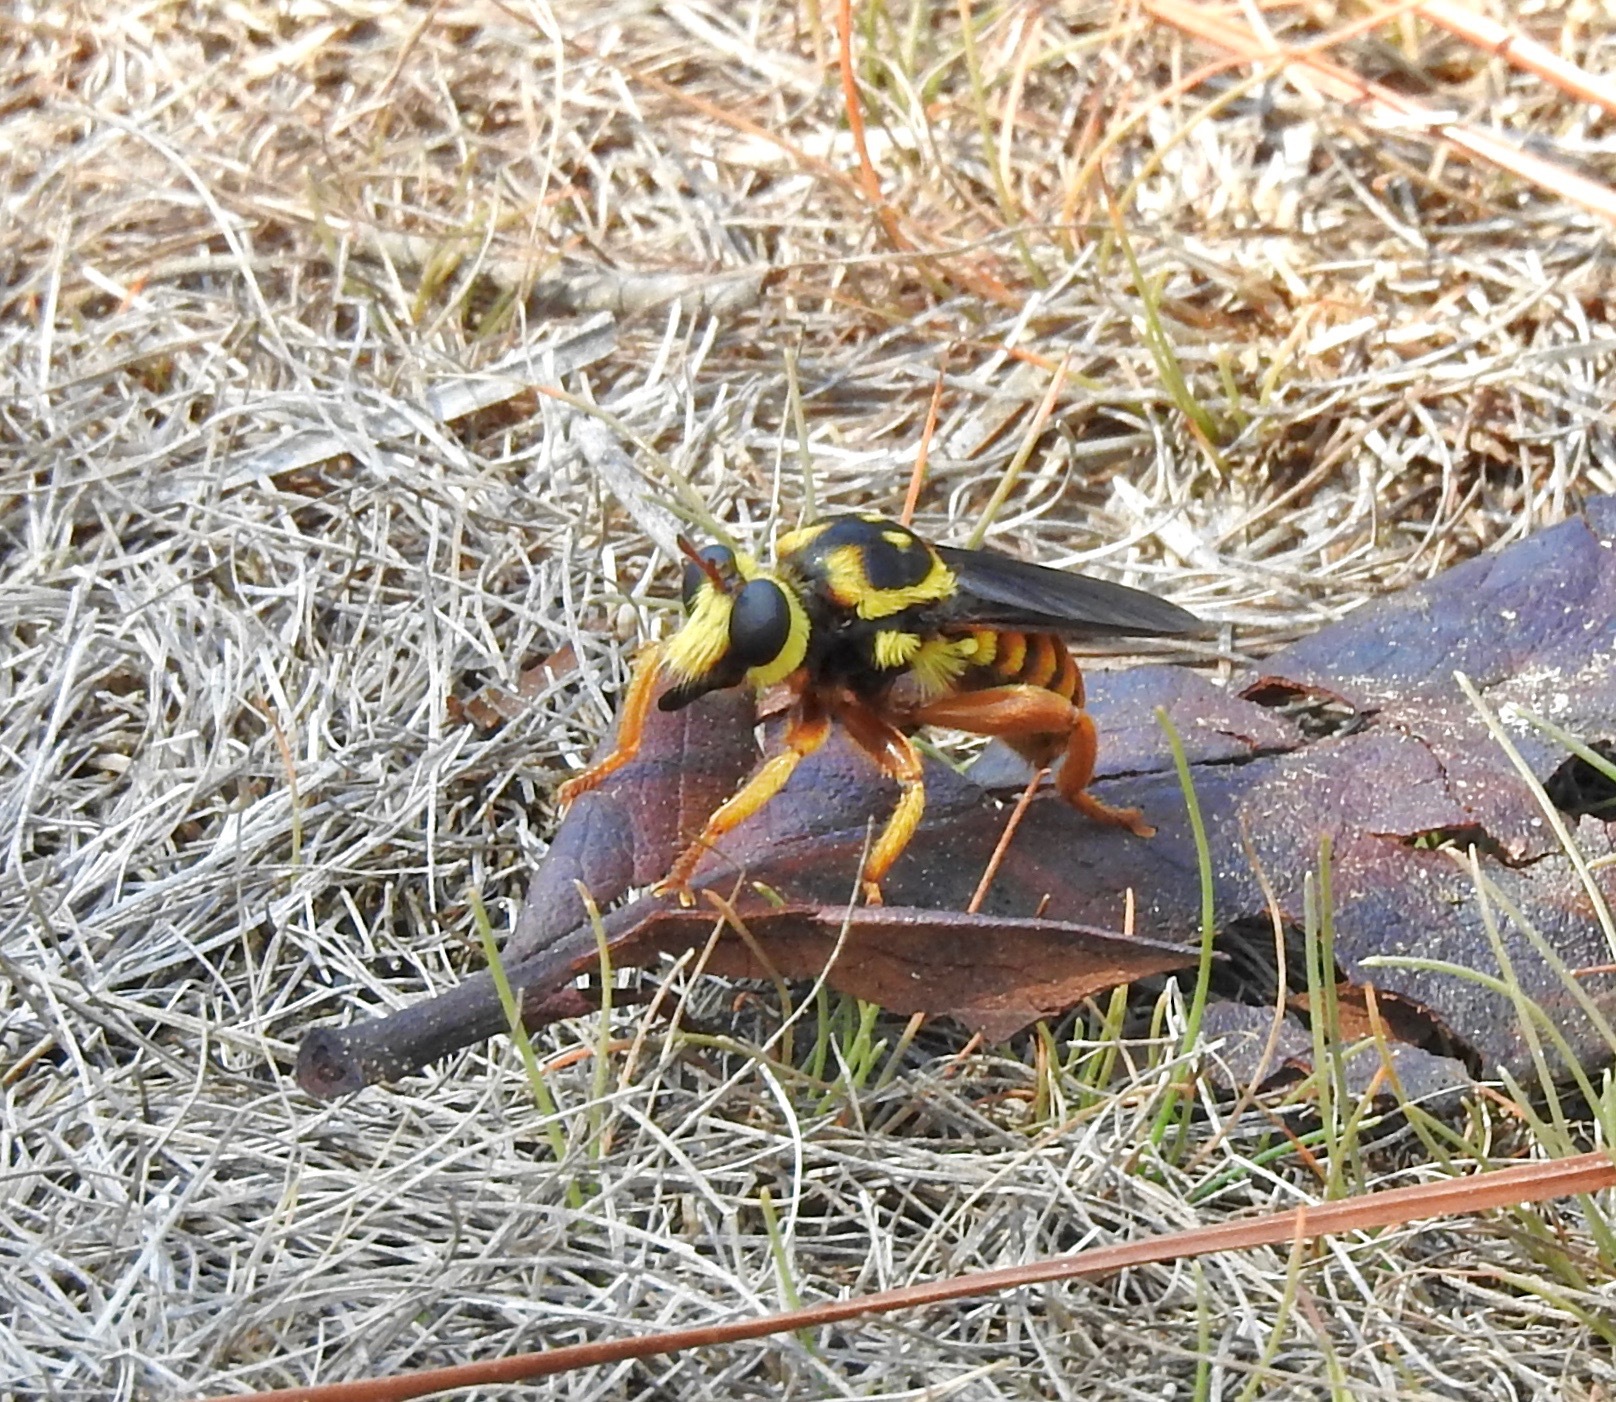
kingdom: Animalia
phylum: Arthropoda
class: Insecta
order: Diptera
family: Asilidae
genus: Laphria
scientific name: Laphria saffrana
